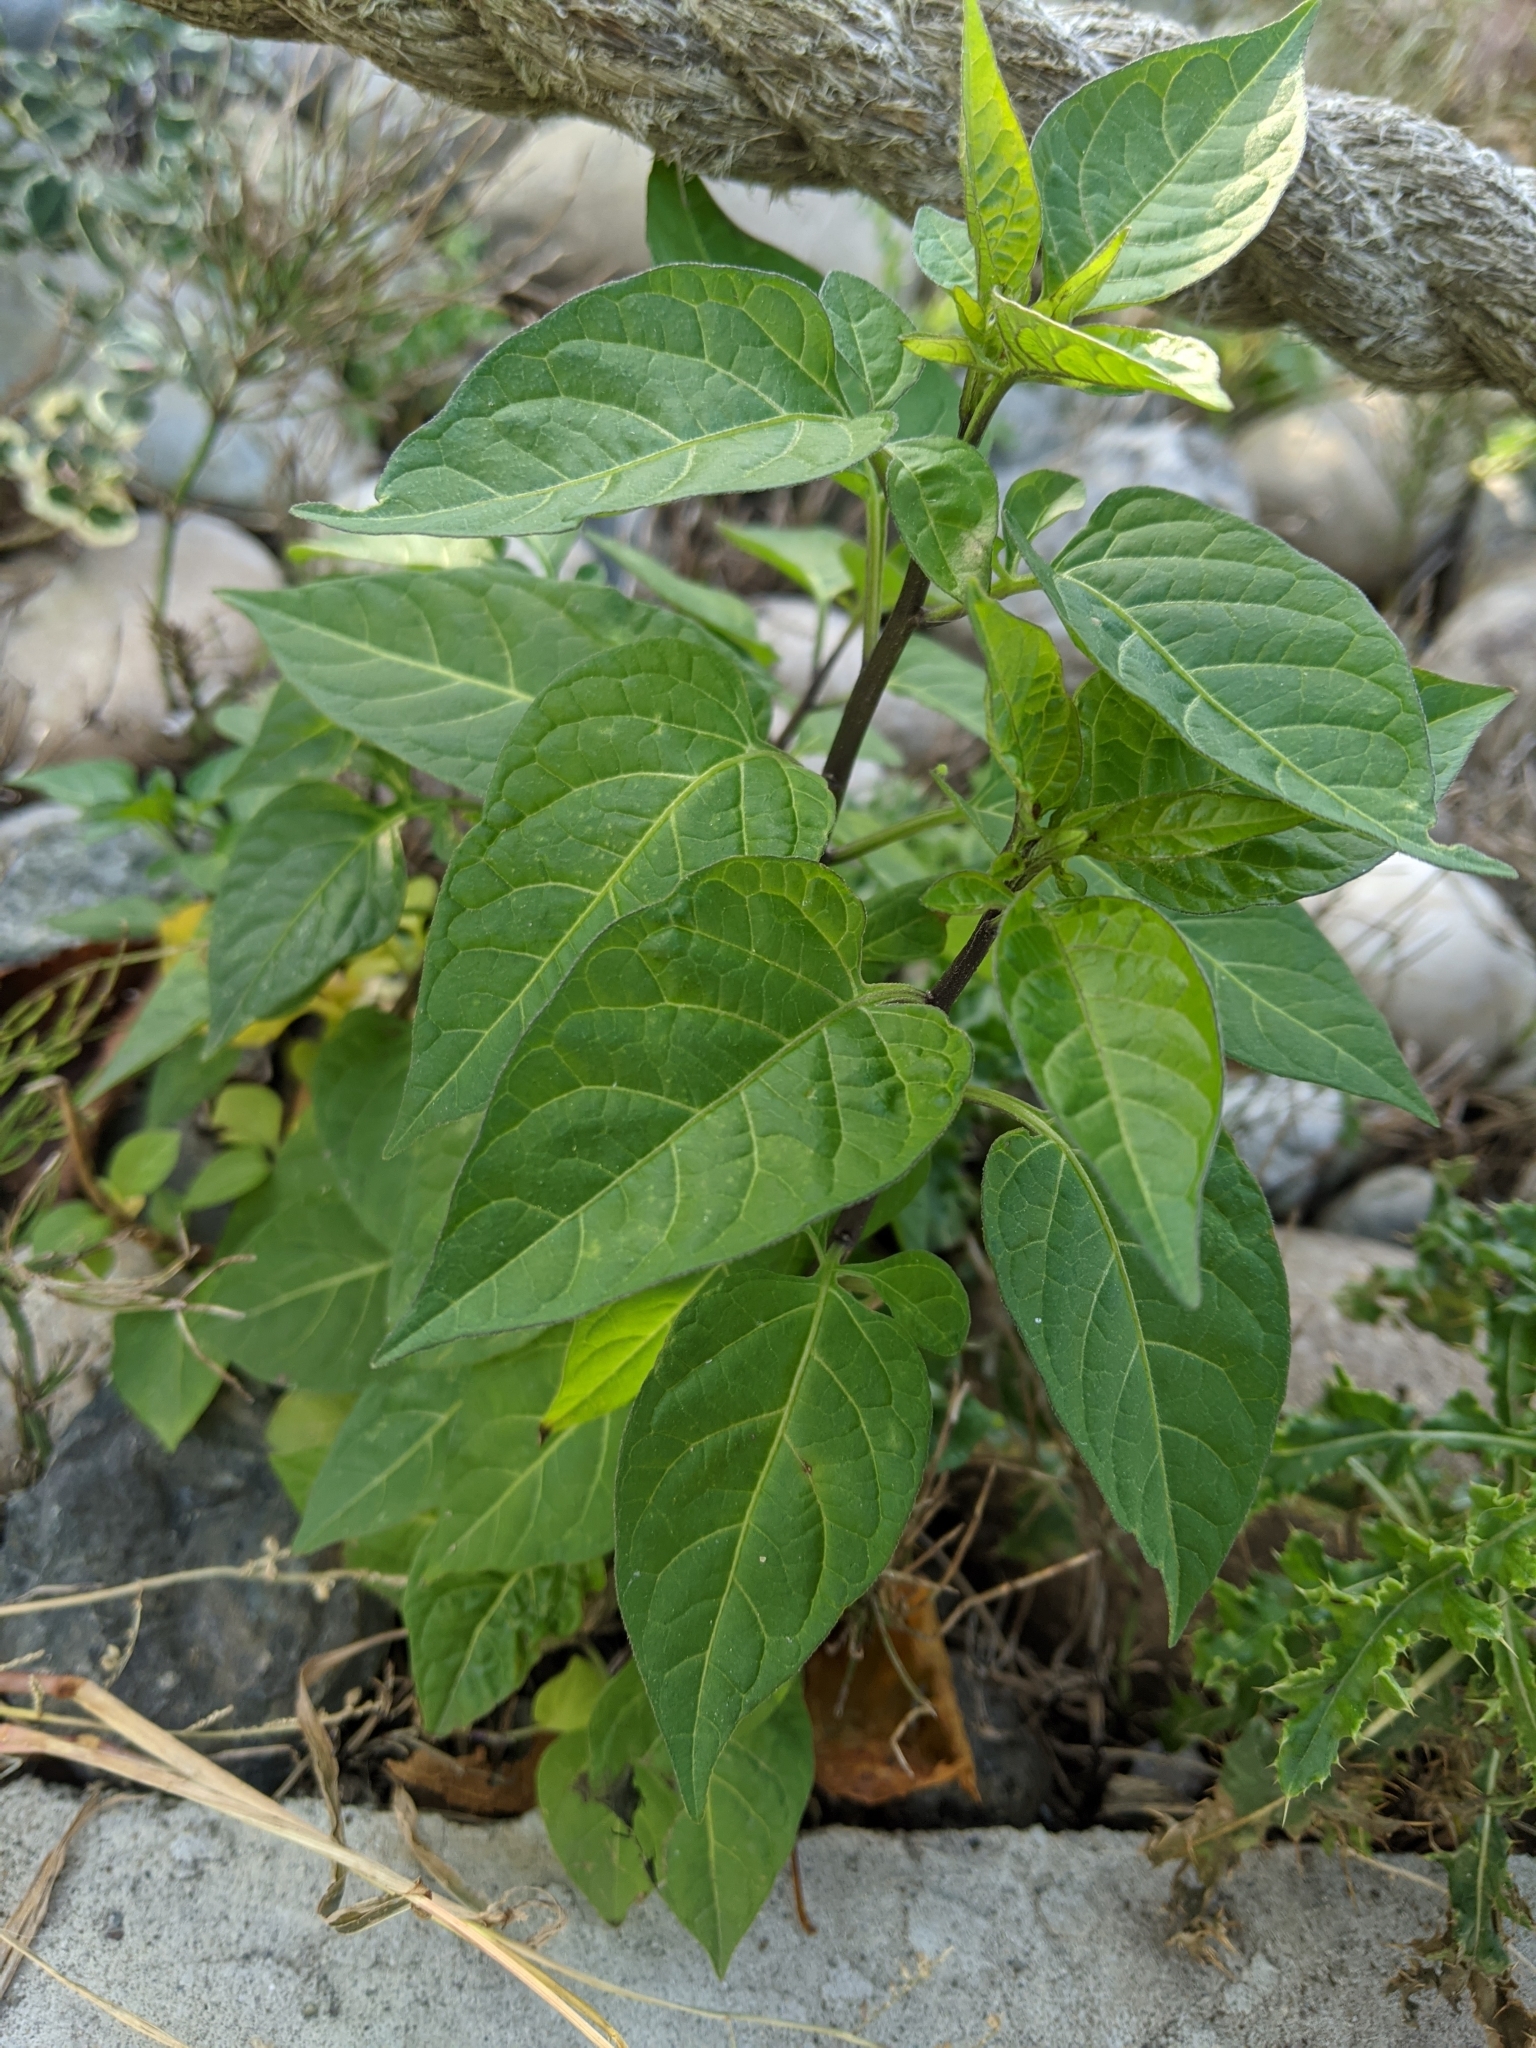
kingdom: Plantae
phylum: Tracheophyta
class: Magnoliopsida
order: Solanales
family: Solanaceae
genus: Solanum
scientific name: Solanum dulcamara
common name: Climbing nightshade
